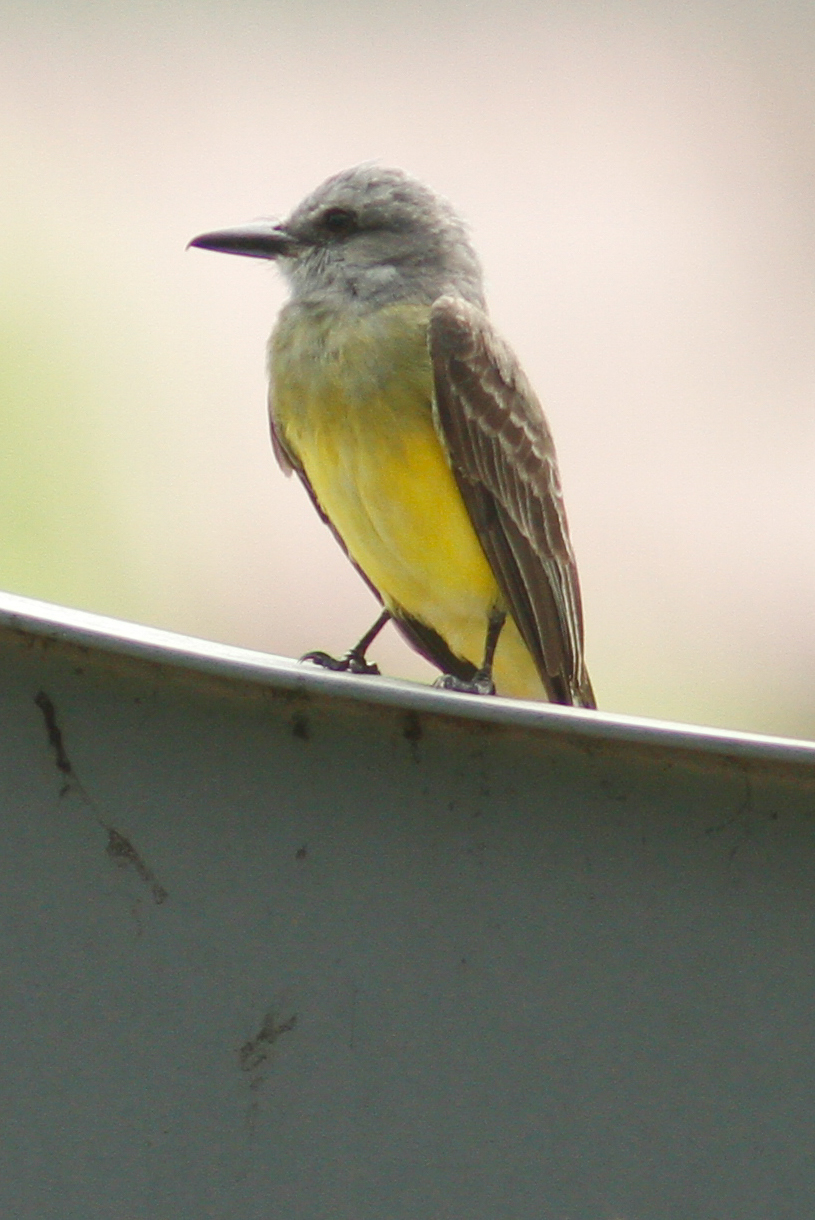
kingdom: Animalia
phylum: Chordata
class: Aves
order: Passeriformes
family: Tyrannidae
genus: Tyrannus
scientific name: Tyrannus melancholicus
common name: Tropical kingbird
